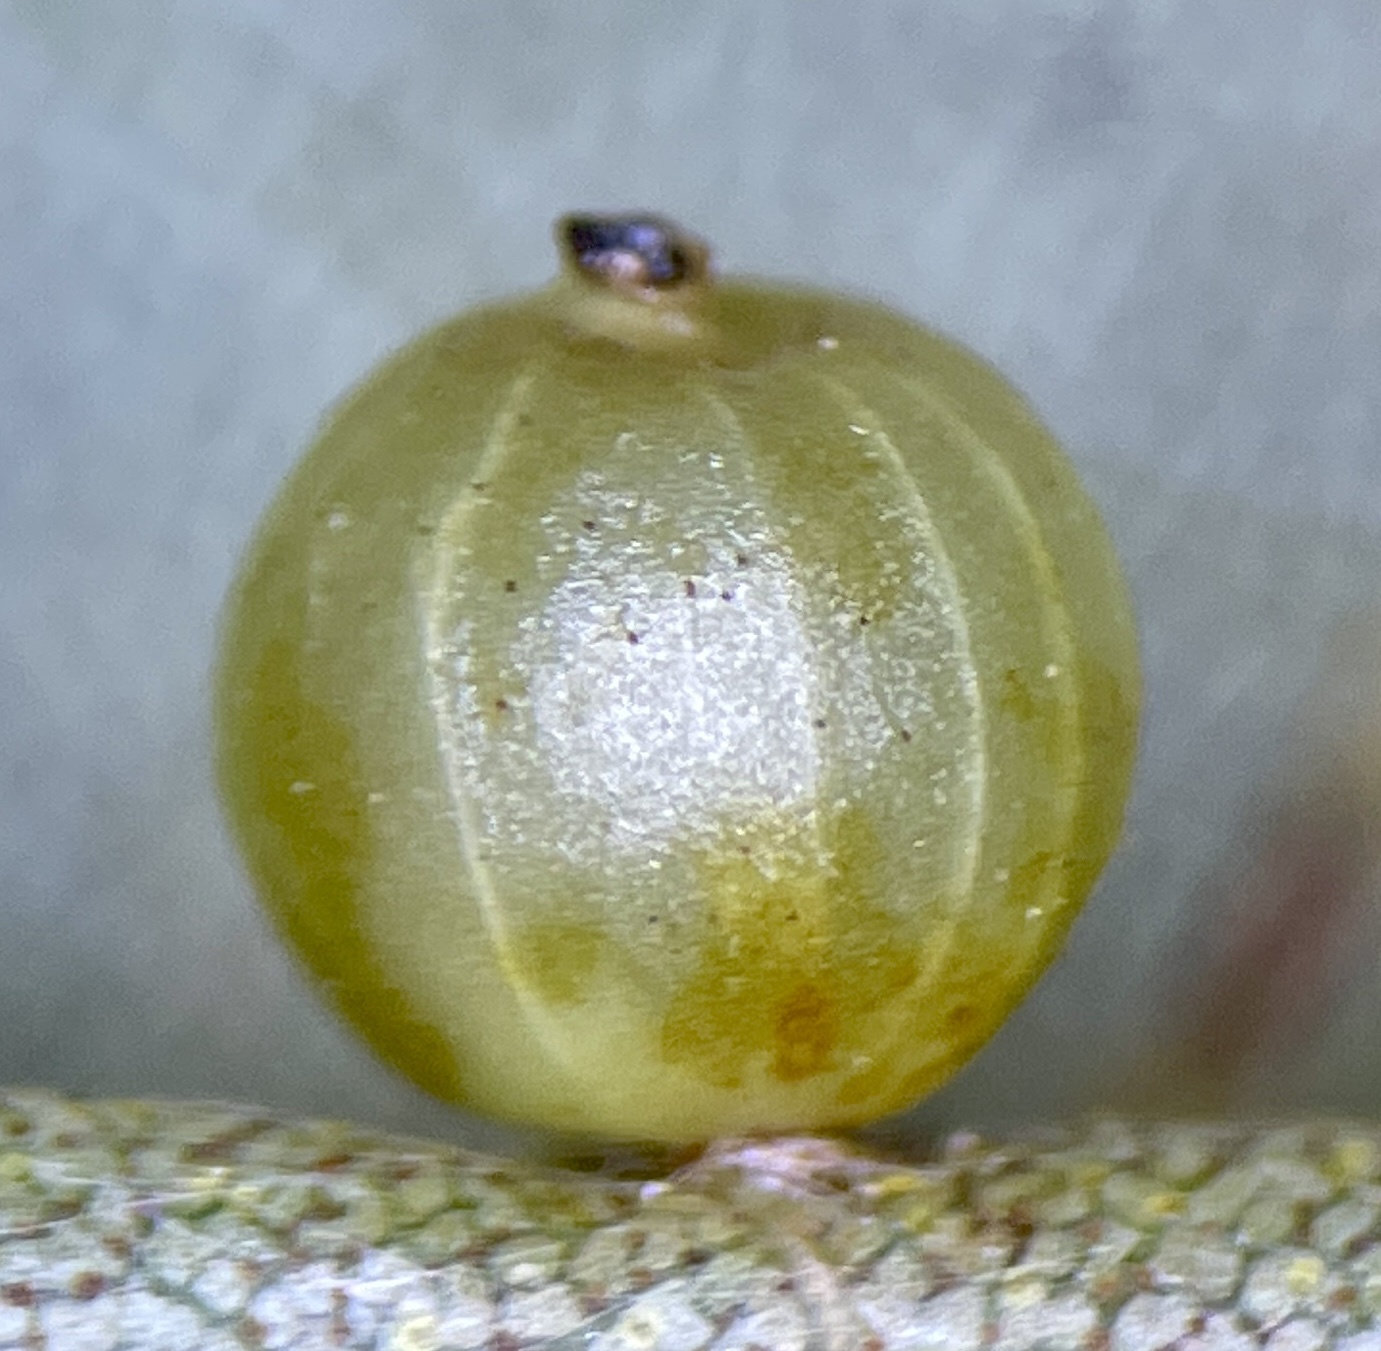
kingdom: Animalia
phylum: Arthropoda
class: Insecta
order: Diptera
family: Cecidomyiidae
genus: Caryomyia
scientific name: Caryomyia leviglobus
